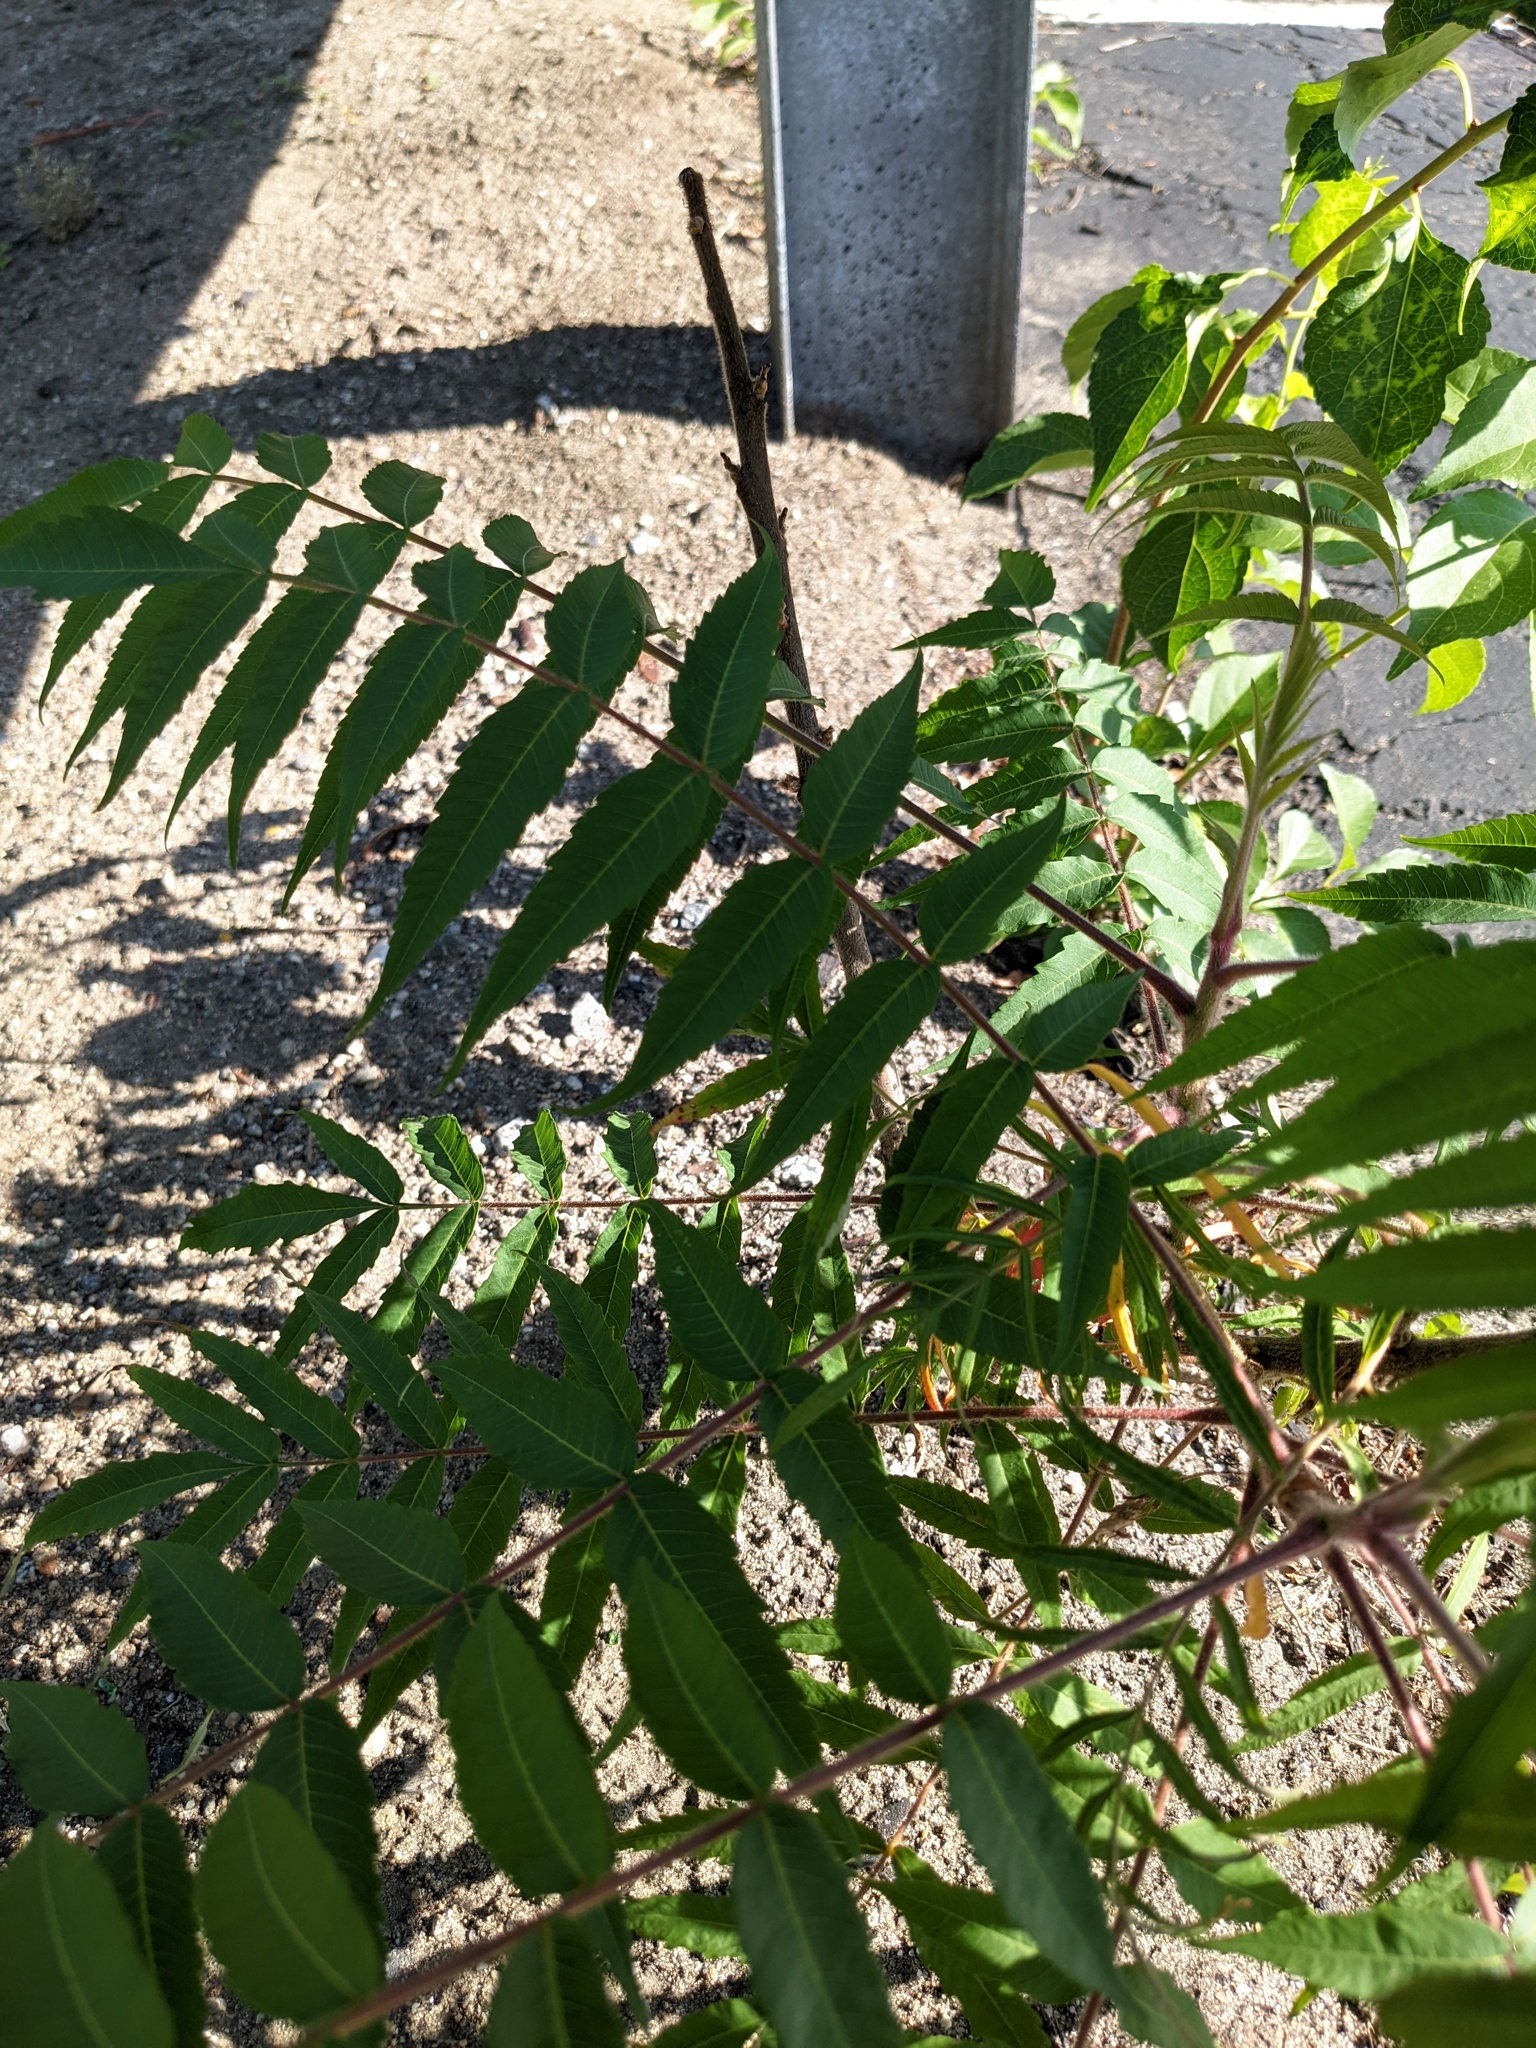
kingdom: Plantae
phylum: Tracheophyta
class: Magnoliopsida
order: Sapindales
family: Anacardiaceae
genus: Rhus
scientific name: Rhus typhina
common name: Staghorn sumac
